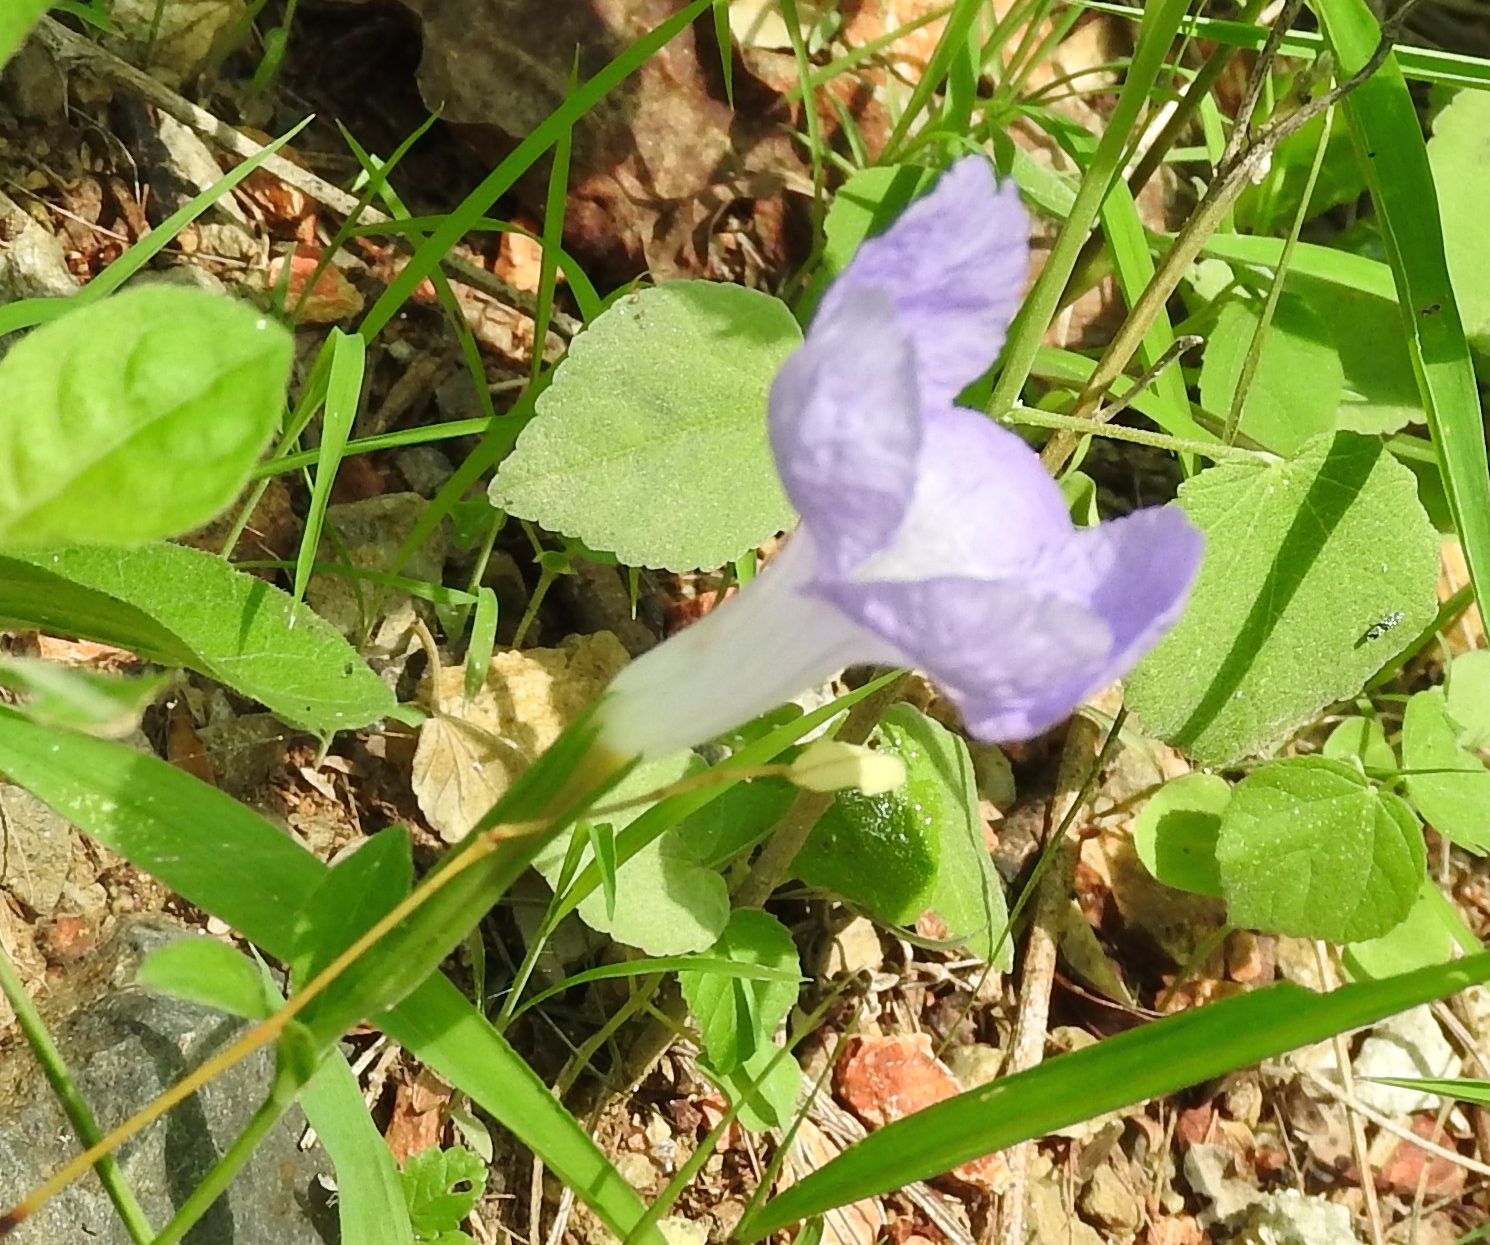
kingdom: Plantae
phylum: Tracheophyta
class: Magnoliopsida
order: Lamiales
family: Acanthaceae
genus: Ruellia
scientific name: Ruellia intermedia
